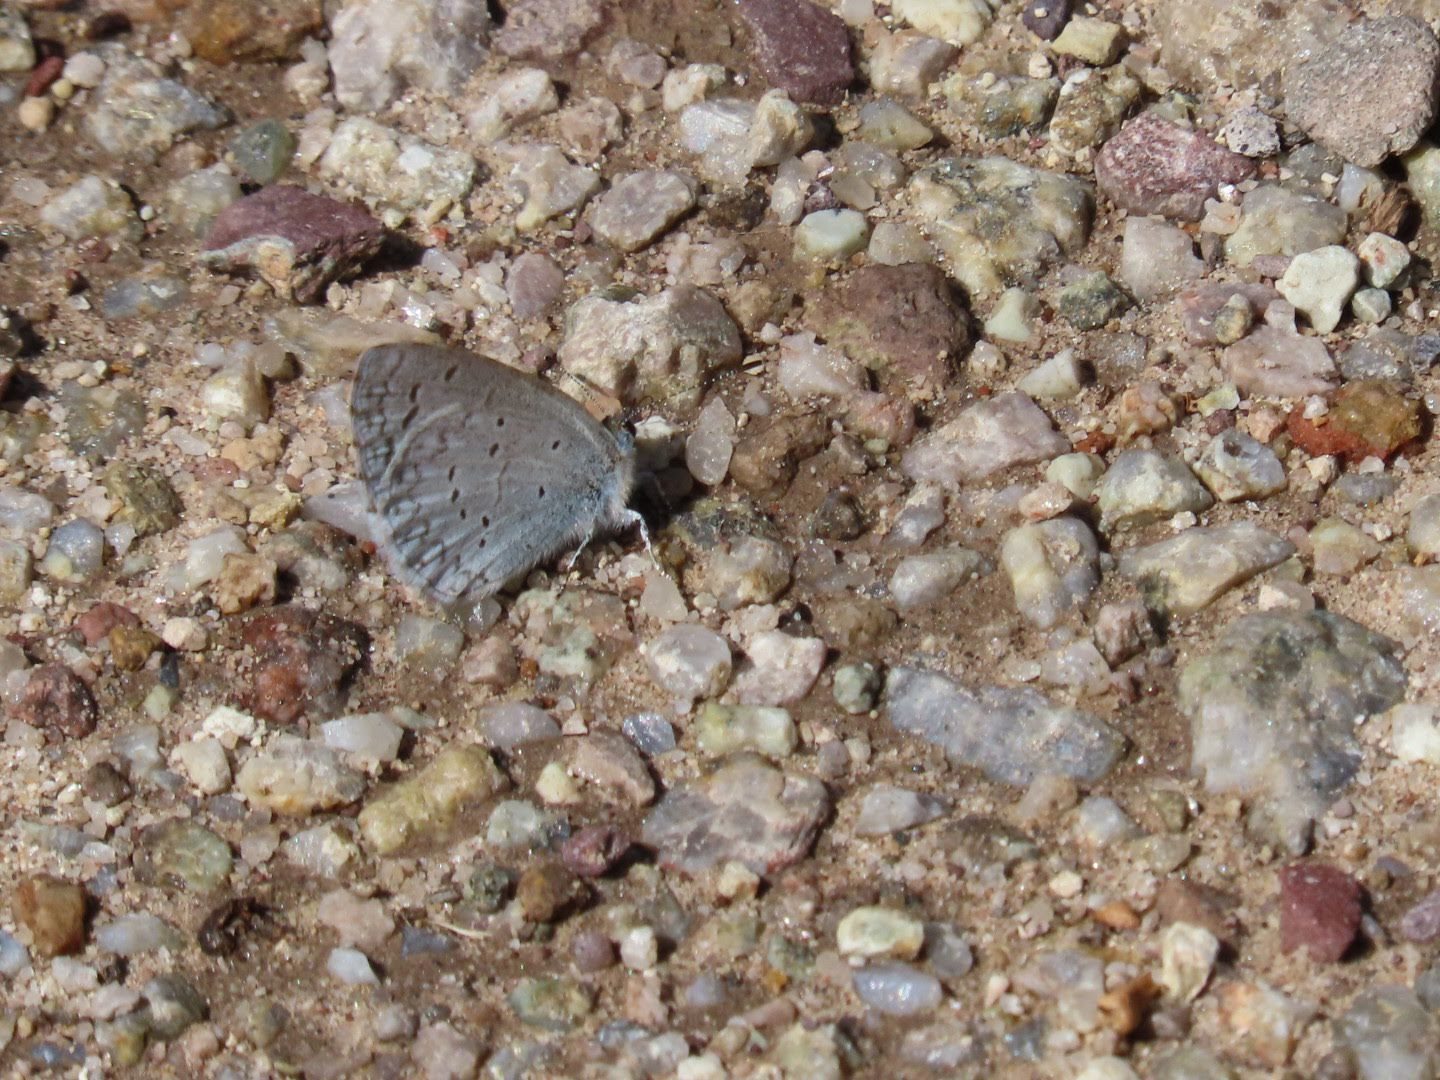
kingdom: Animalia
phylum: Arthropoda
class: Insecta
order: Lepidoptera
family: Lycaenidae
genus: Celastrina
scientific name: Celastrina ladon
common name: Spring azure
